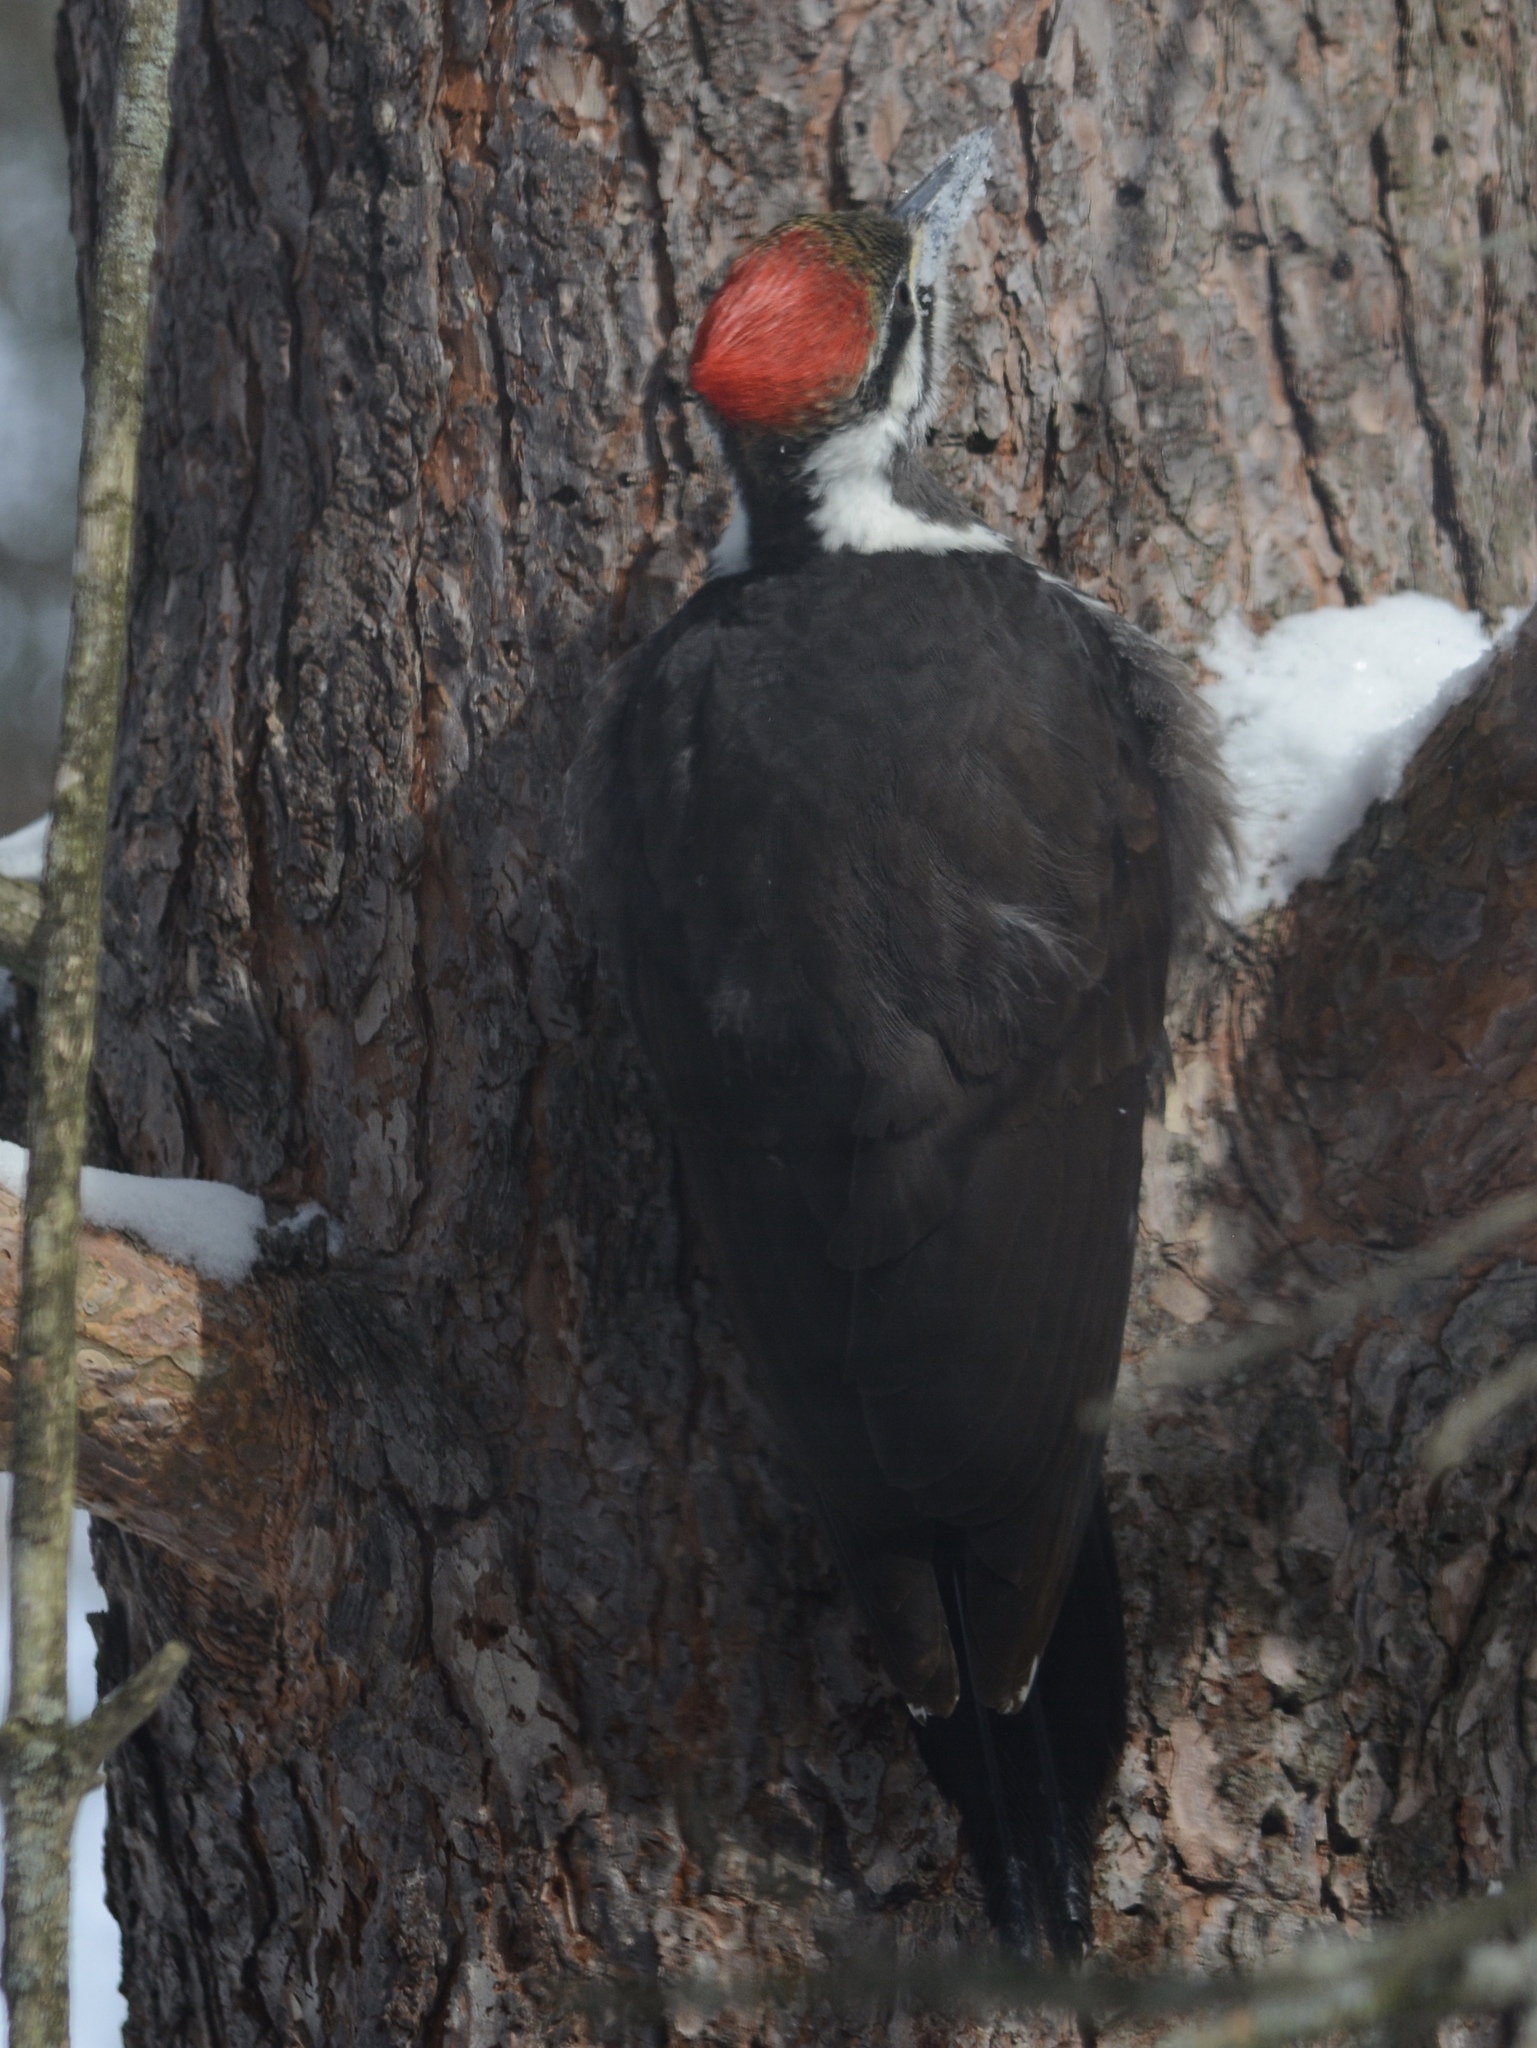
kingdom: Animalia
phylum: Chordata
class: Aves
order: Piciformes
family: Picidae
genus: Dryocopus
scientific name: Dryocopus pileatus
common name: Pileated woodpecker
